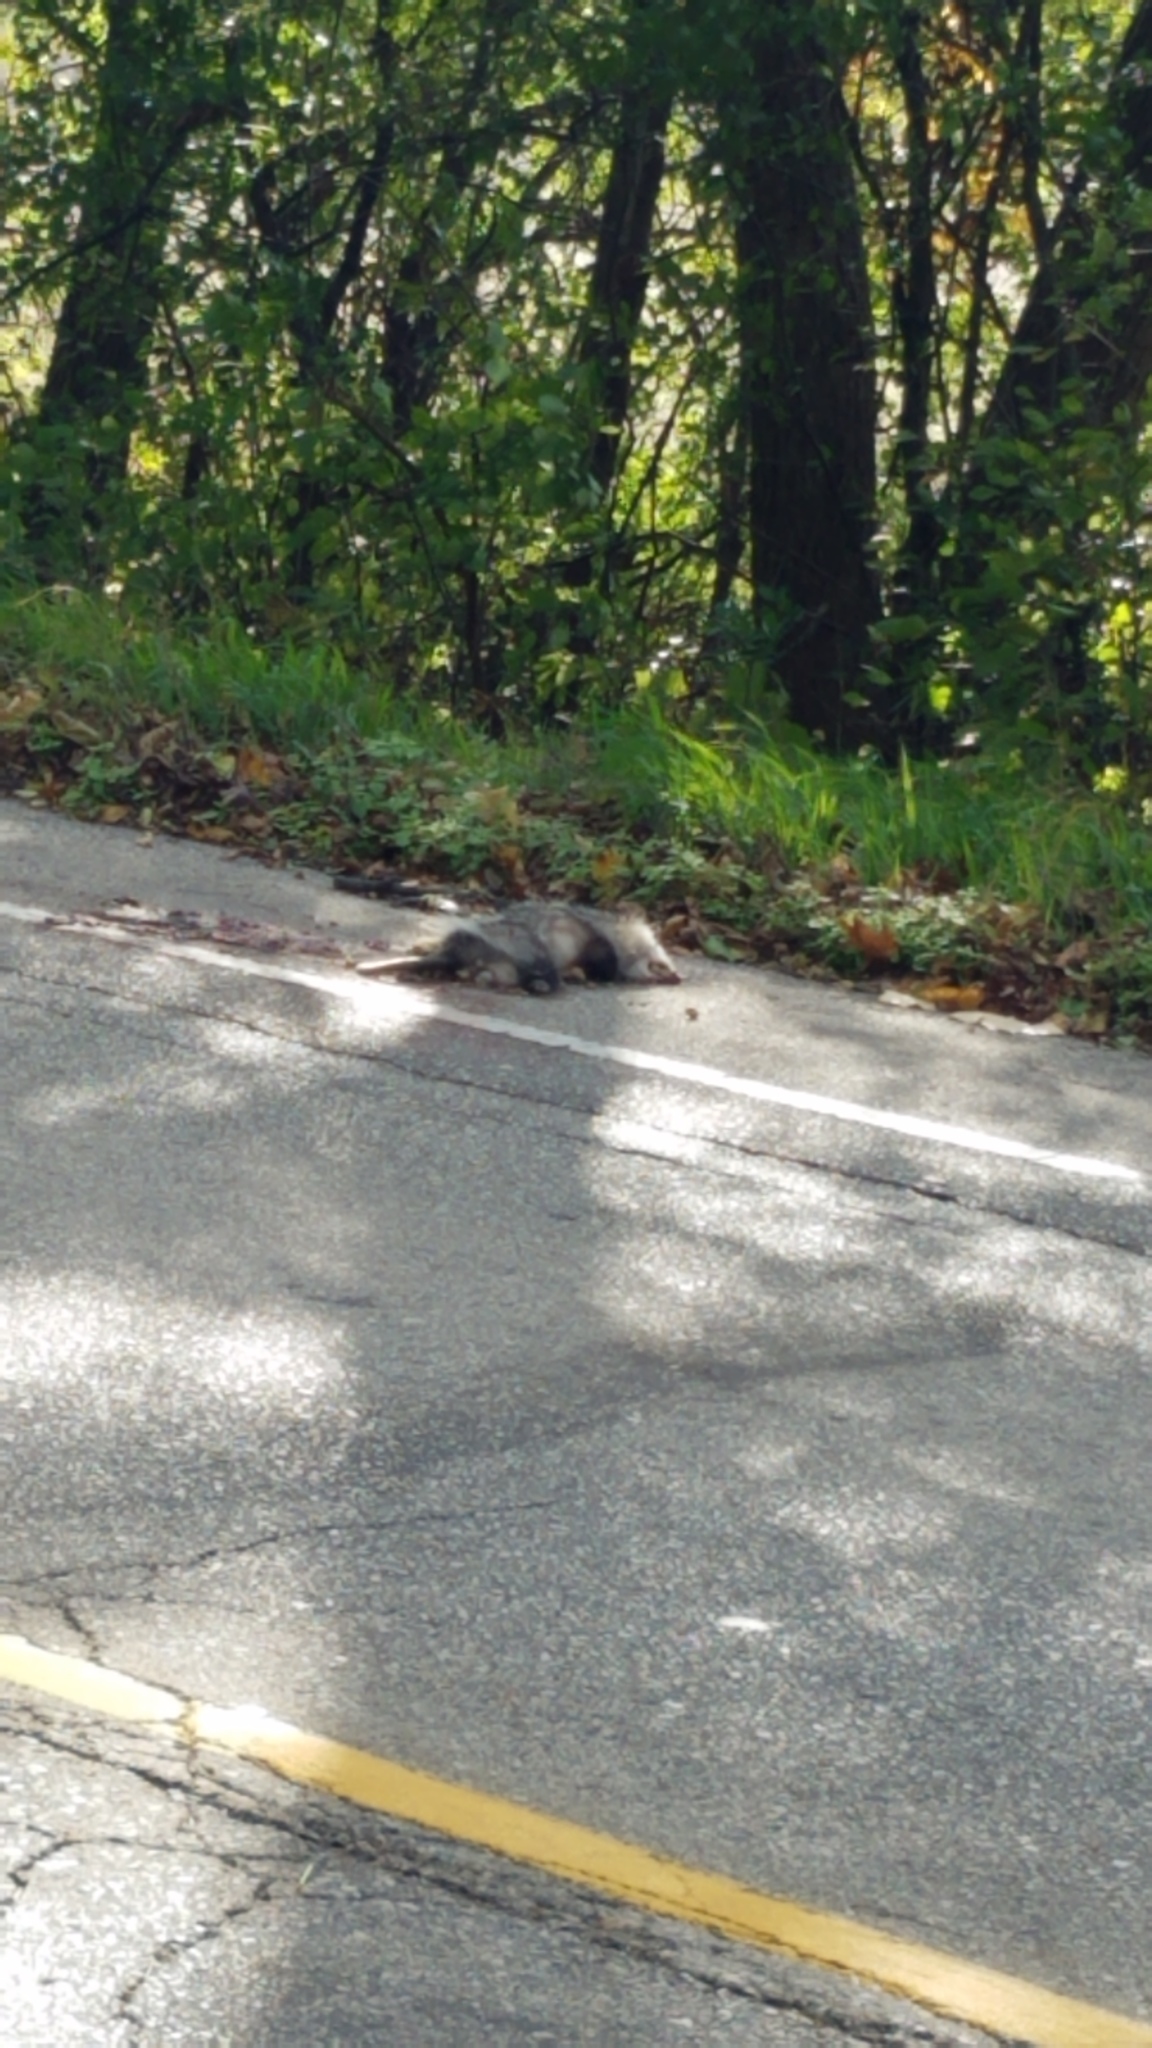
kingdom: Animalia
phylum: Chordata
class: Mammalia
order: Didelphimorphia
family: Didelphidae
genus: Didelphis
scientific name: Didelphis virginiana
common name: Virginia opossum
